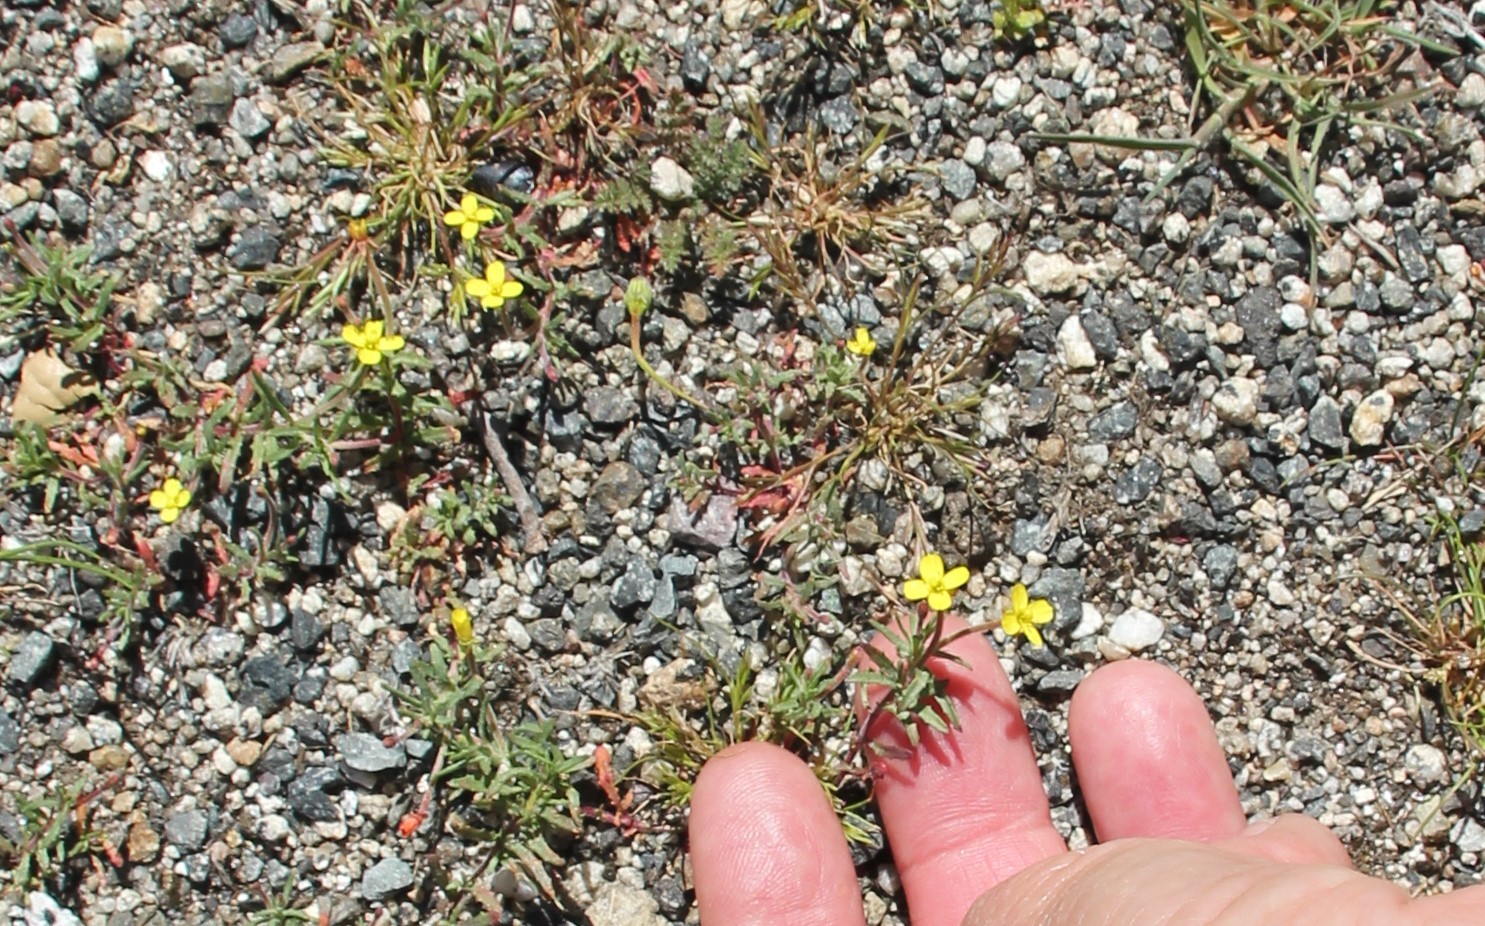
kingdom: Plantae
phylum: Tracheophyta
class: Magnoliopsida
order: Myrtales
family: Onagraceae
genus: Camissonia
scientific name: Camissonia strigulosa
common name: Contorted-primrose
